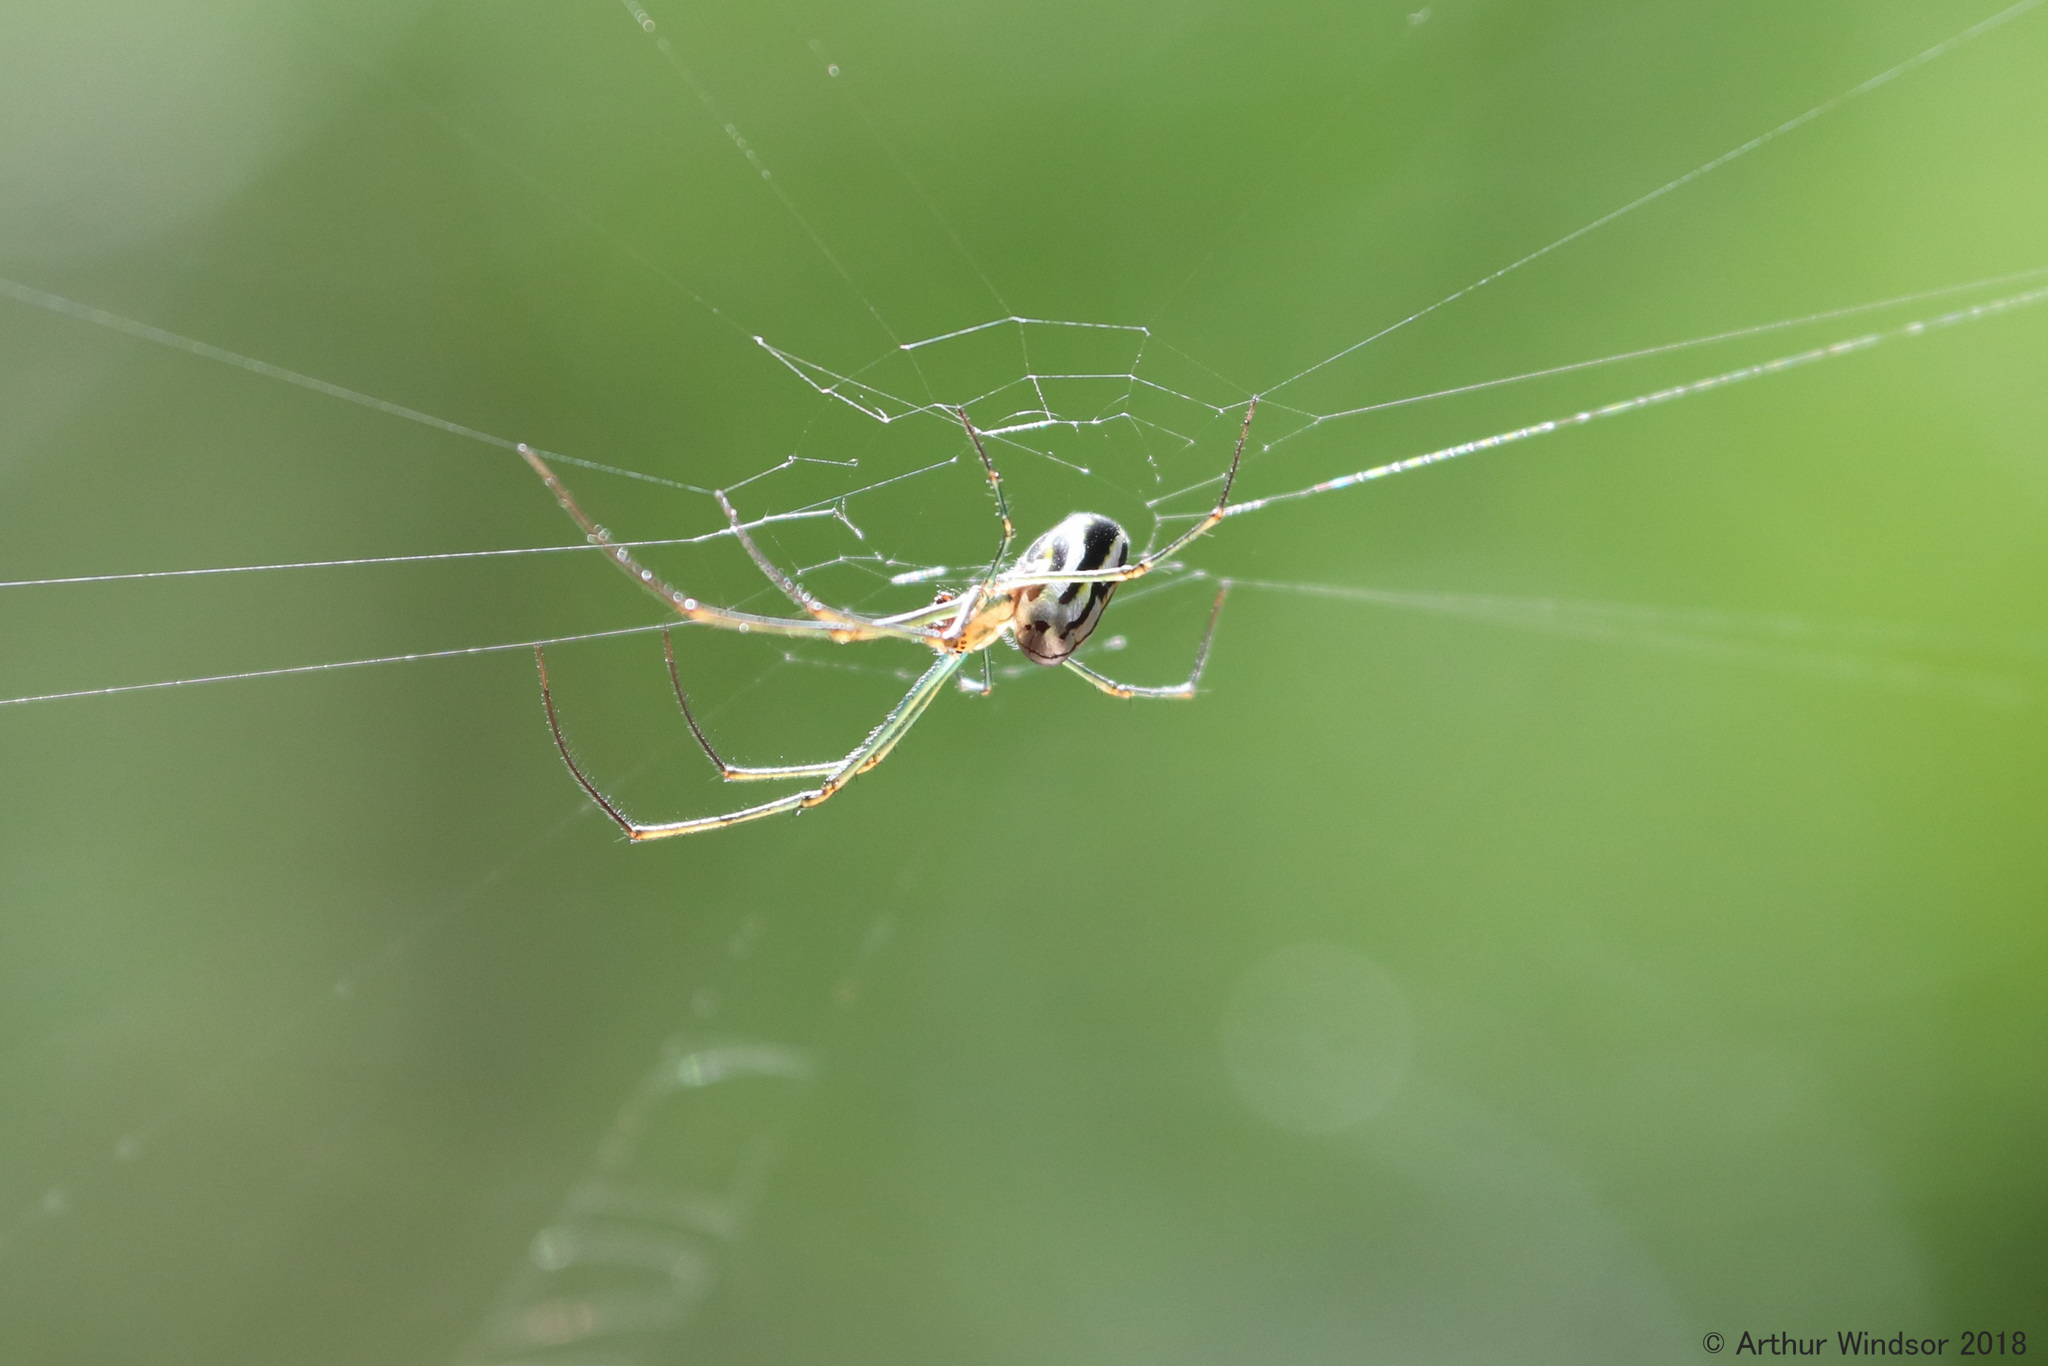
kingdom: Animalia
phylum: Arthropoda
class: Arachnida
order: Araneae
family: Tetragnathidae
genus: Leucauge
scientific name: Leucauge argyra
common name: Longjawed orb weavers
